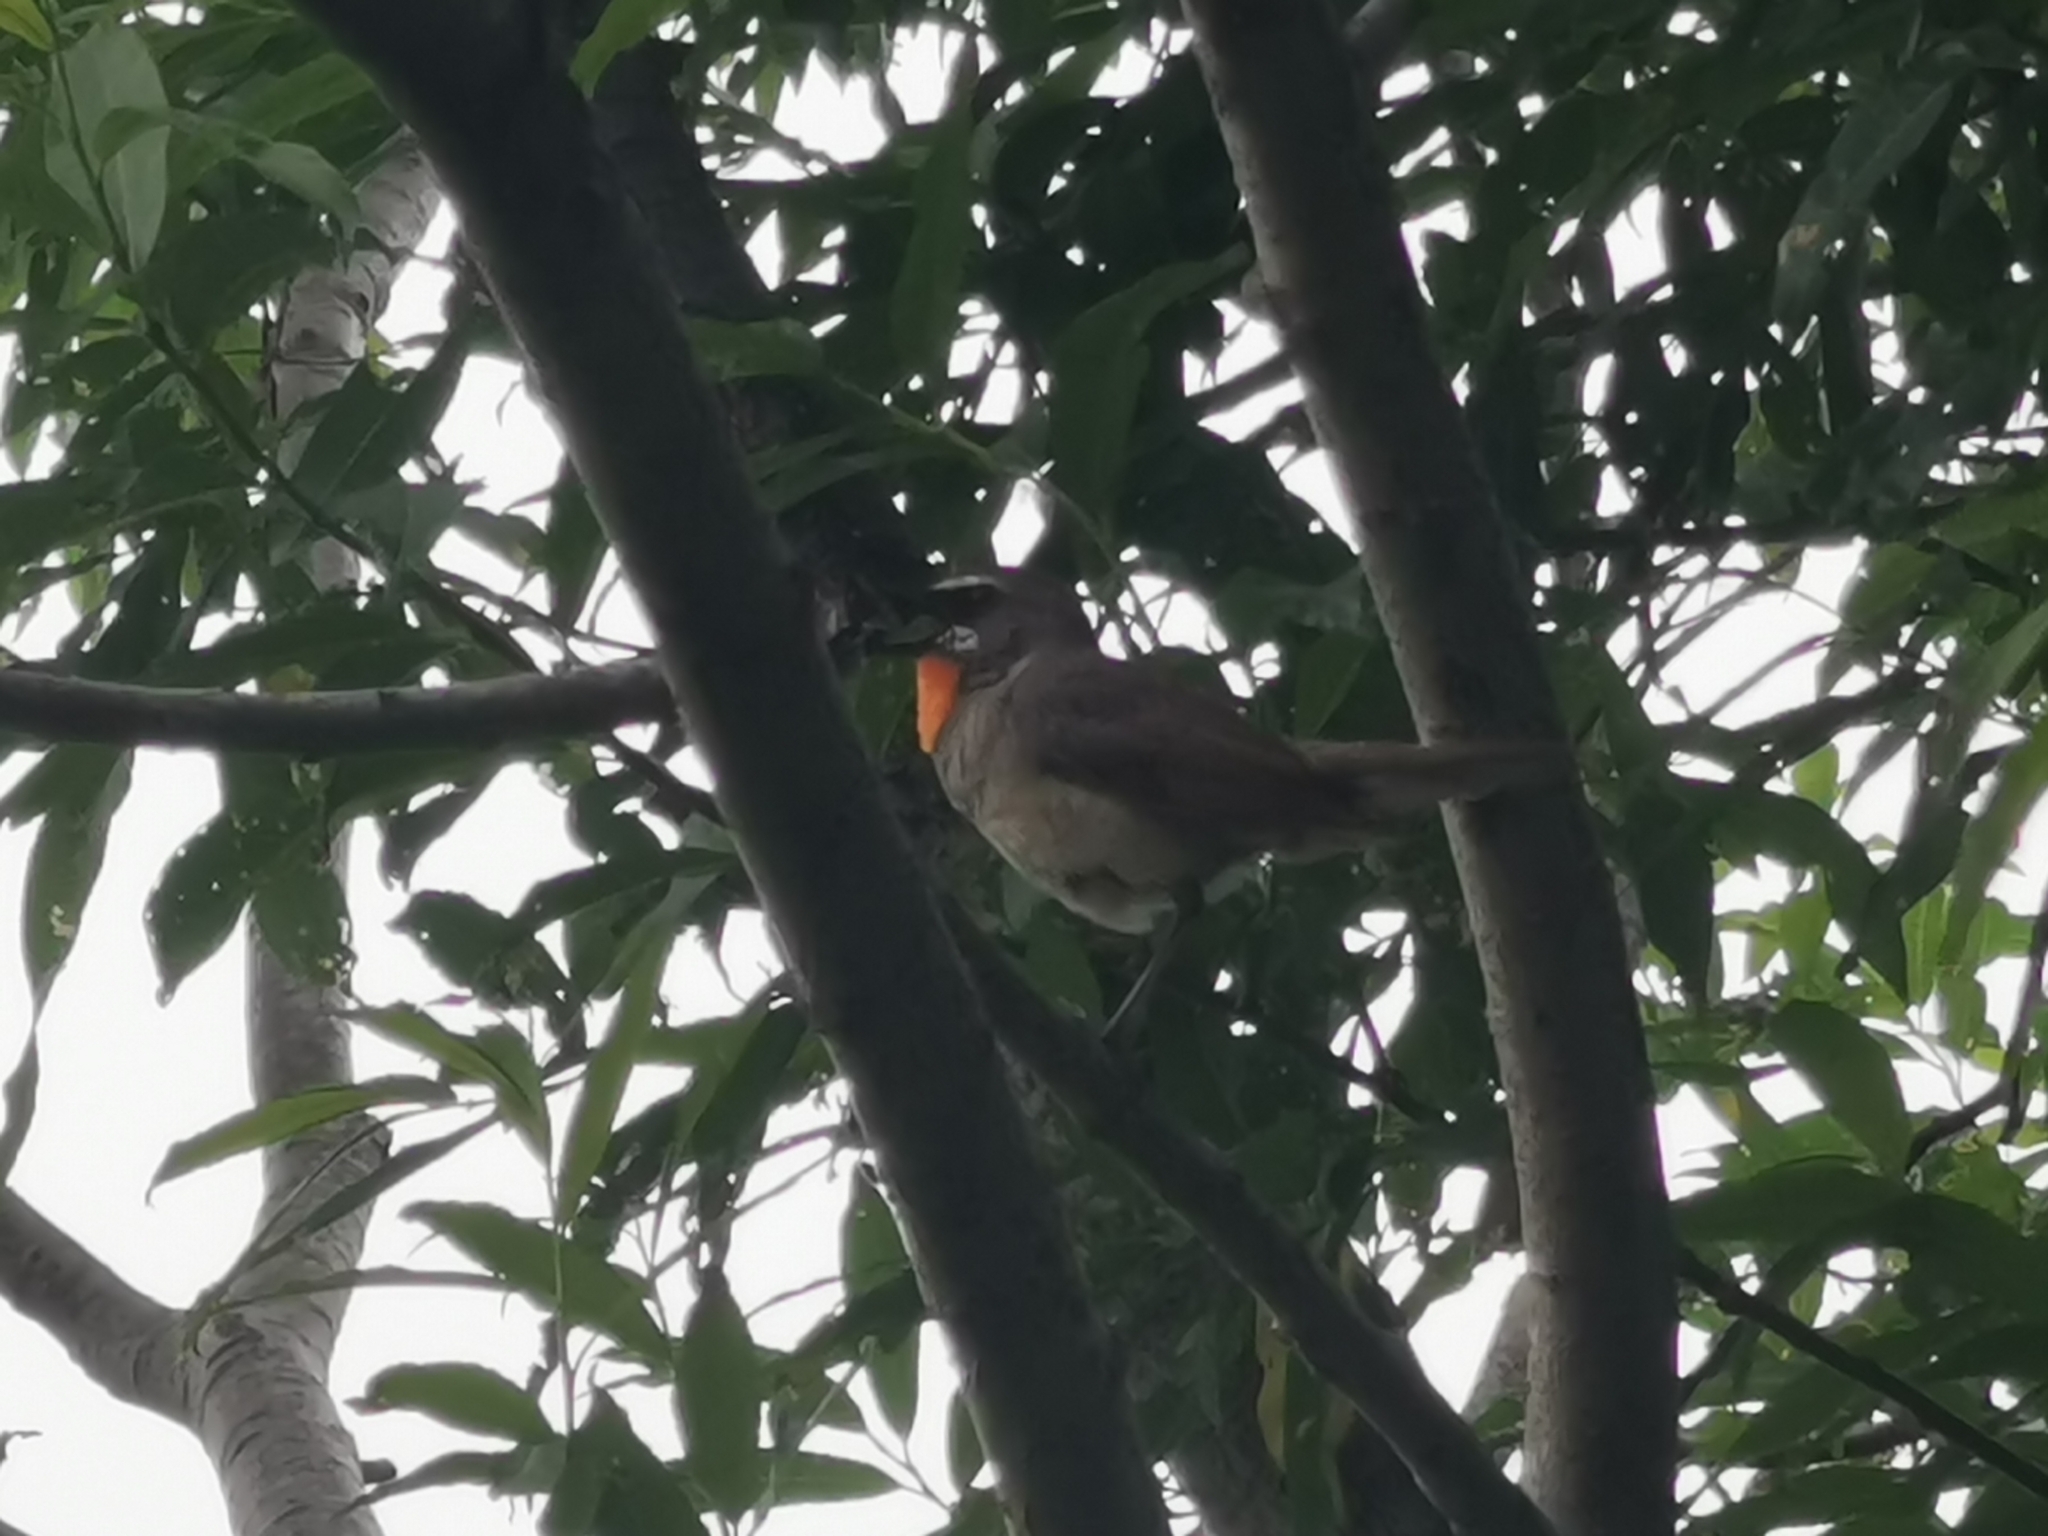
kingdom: Animalia
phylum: Chordata
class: Aves
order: Passeriformes
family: Muscicapidae
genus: Luscinia
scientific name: Luscinia calliope
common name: Siberian rubythroat
